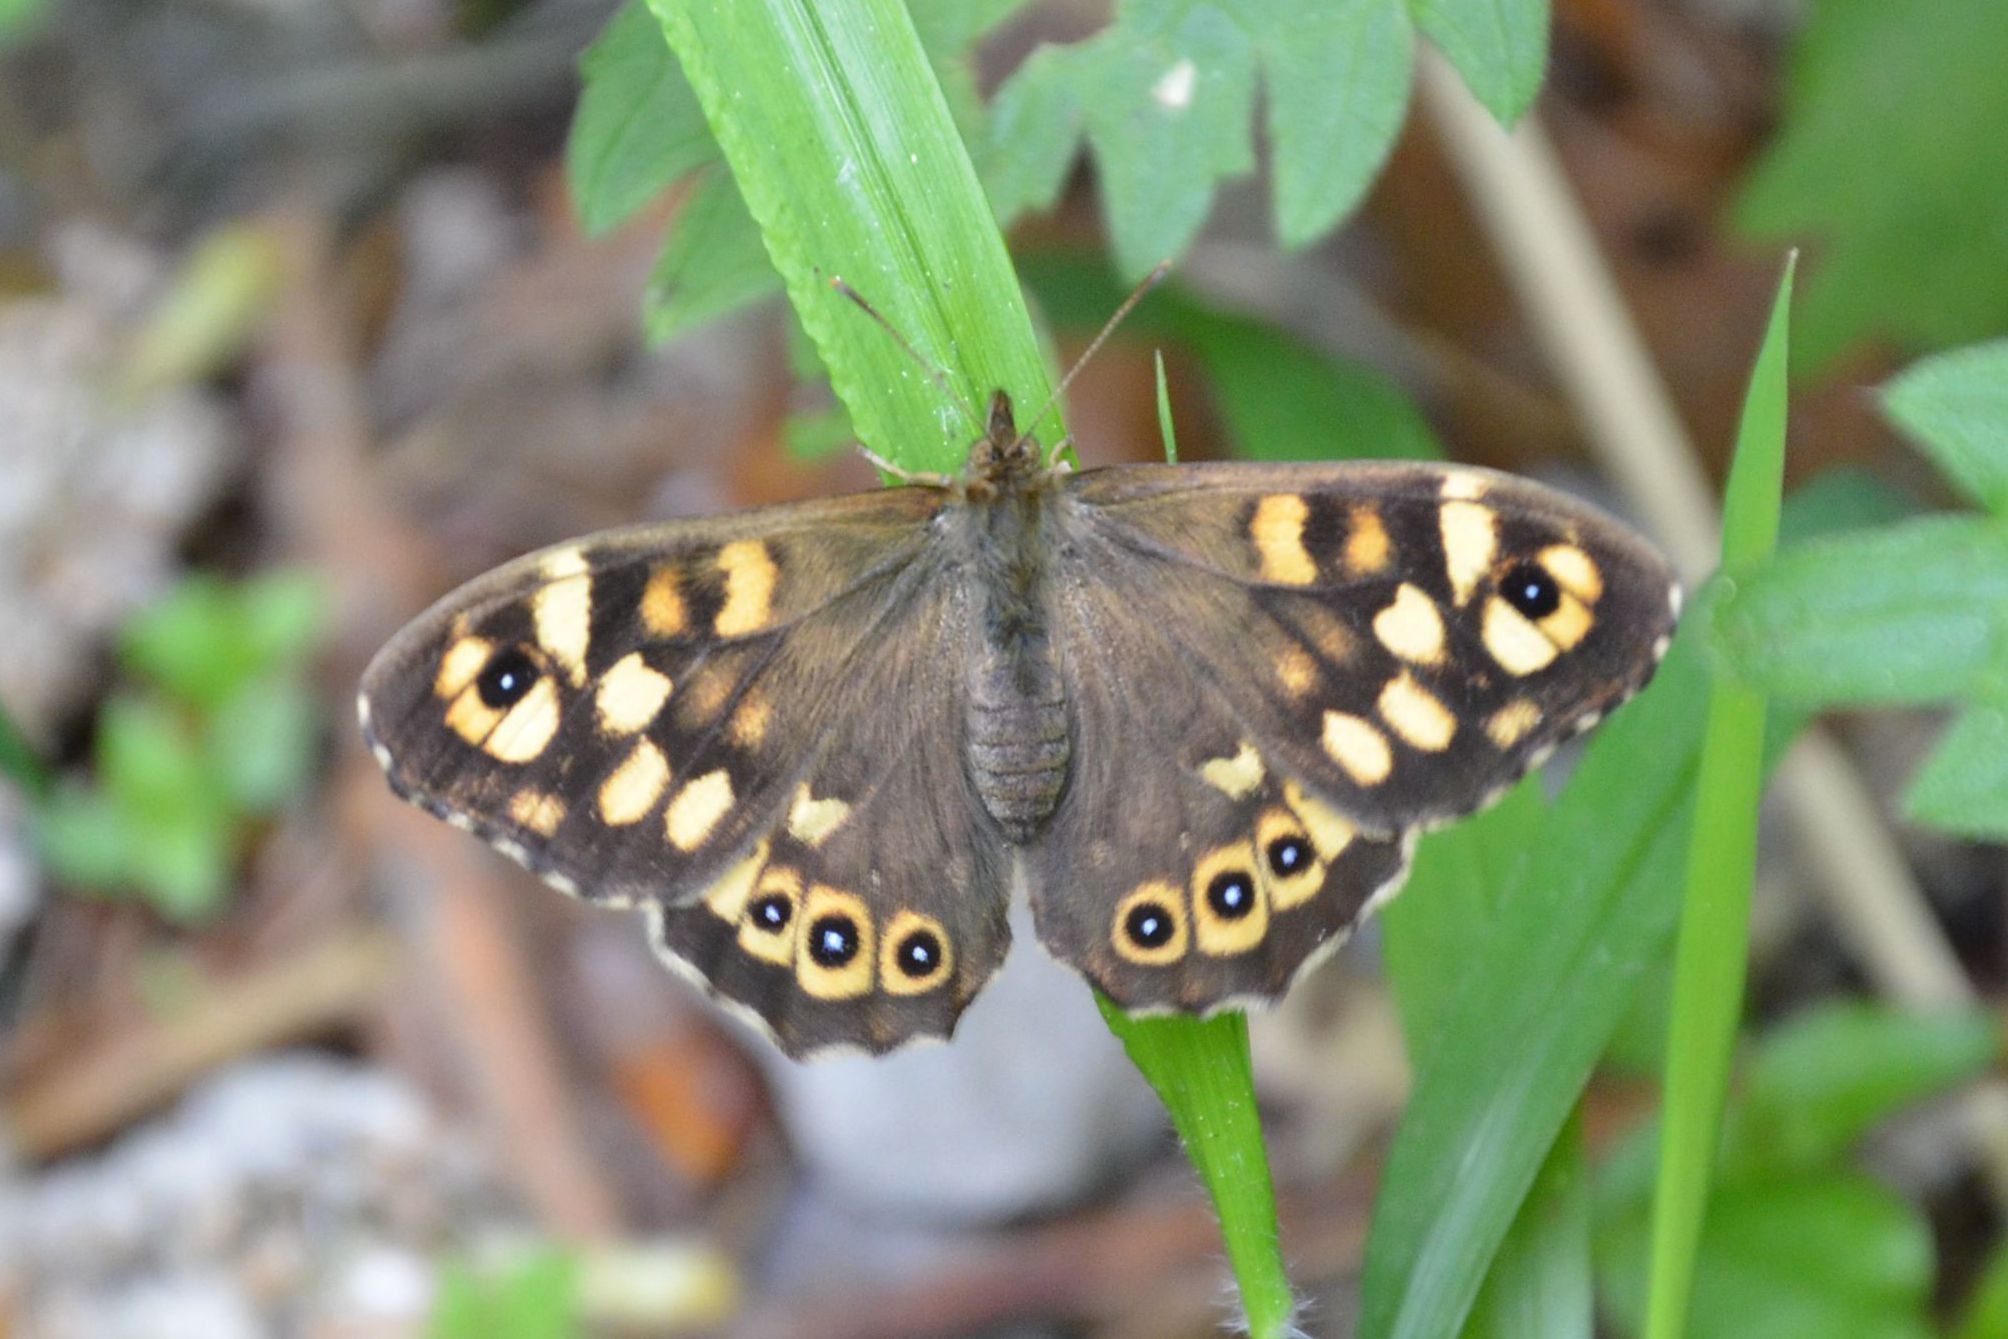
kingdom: Animalia
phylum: Arthropoda
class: Insecta
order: Lepidoptera
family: Nymphalidae
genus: Pararge
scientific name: Pararge aegeria
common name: Speckled wood
